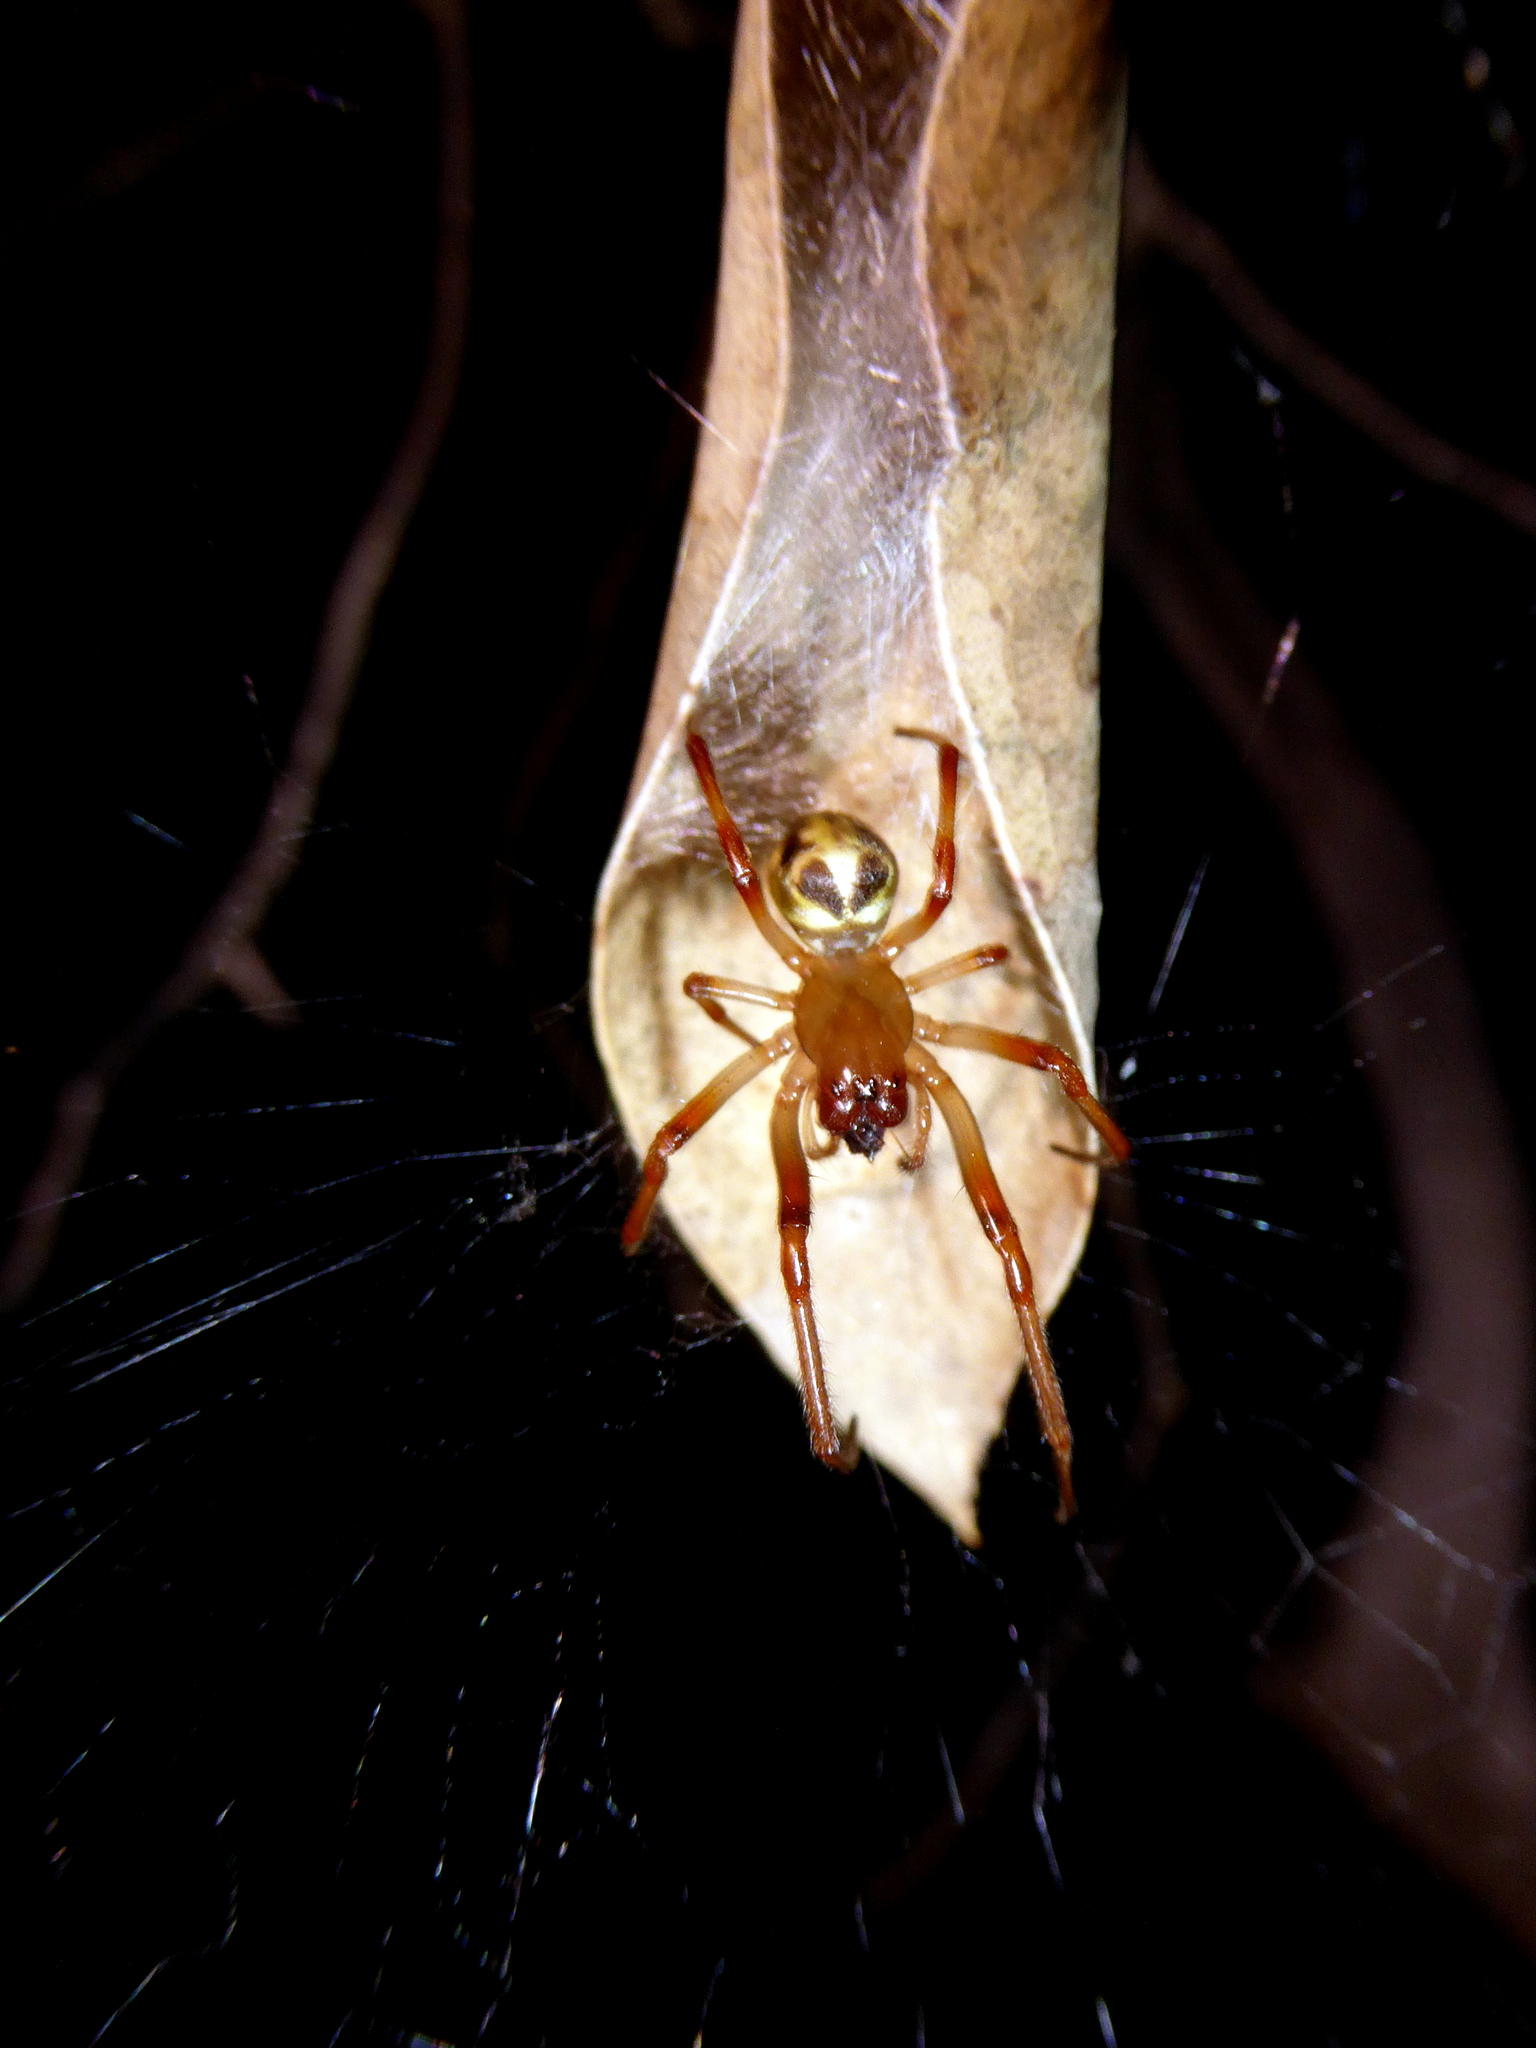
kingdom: Animalia
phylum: Arthropoda
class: Arachnida
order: Araneae
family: Araneidae
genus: Phonognatha
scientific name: Phonognatha graeffei
